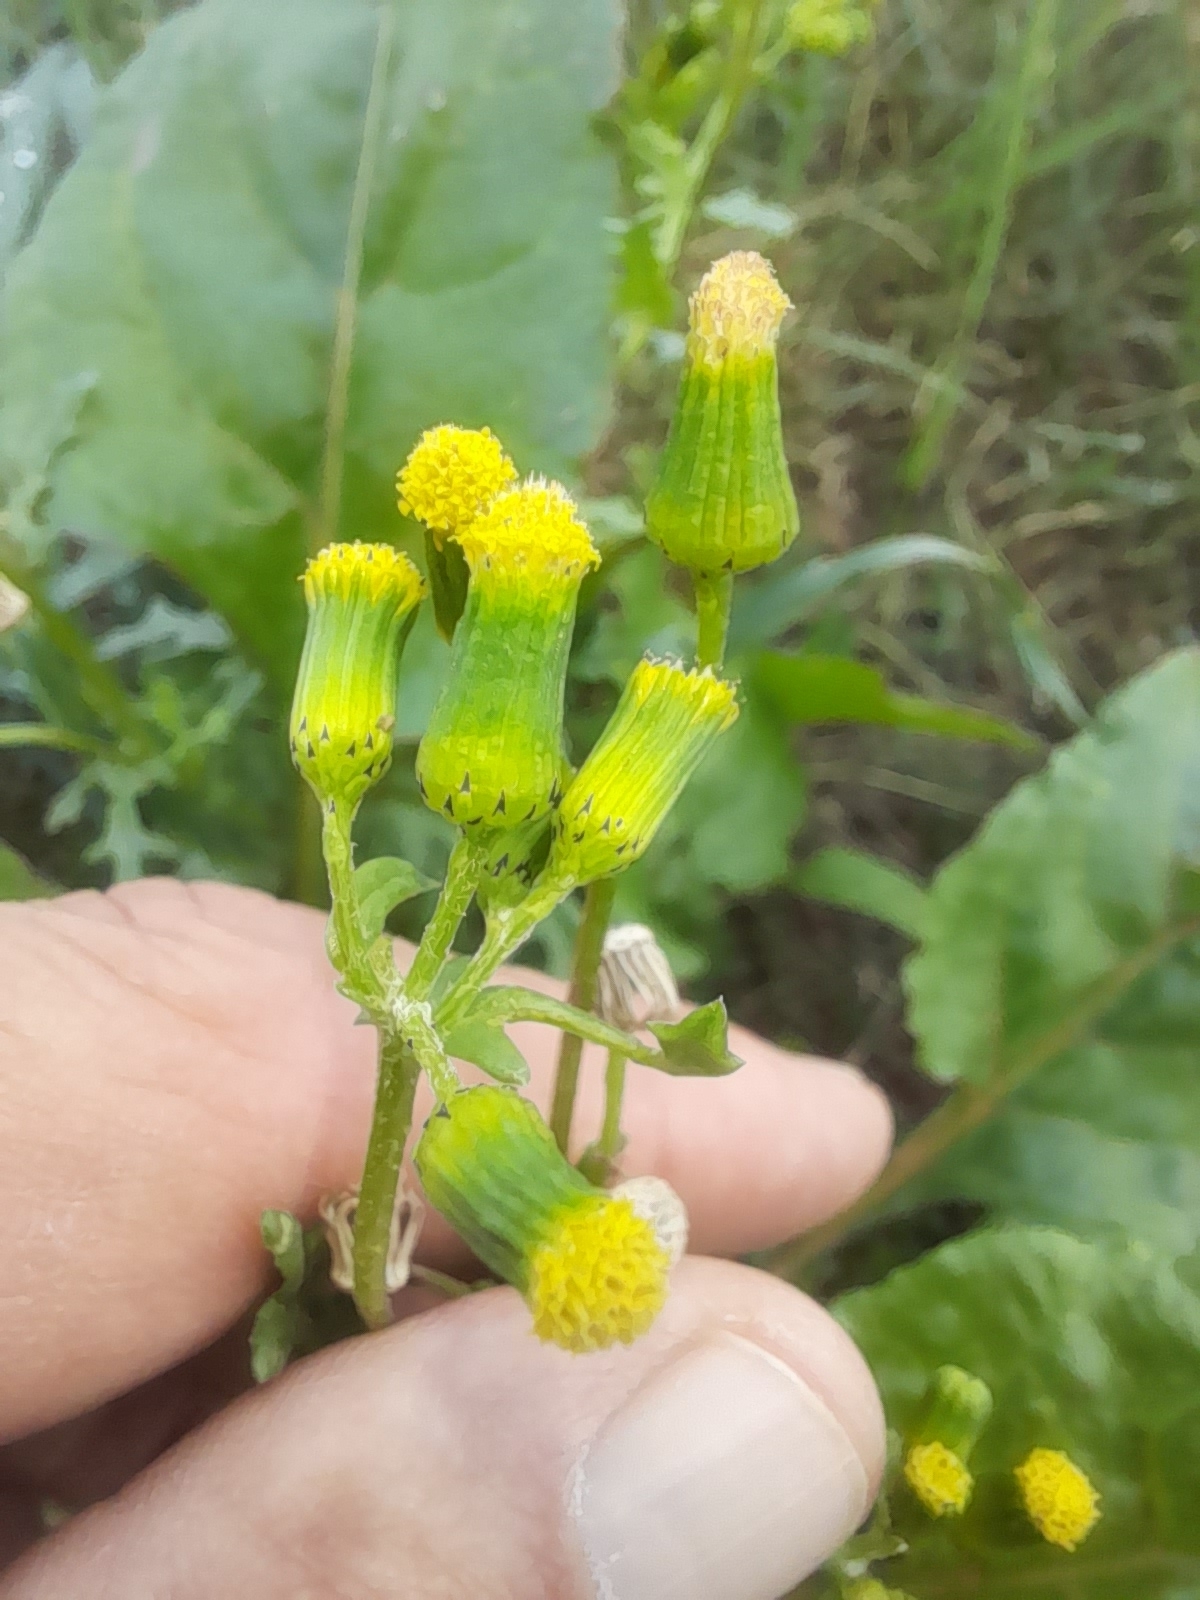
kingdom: Plantae
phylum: Tracheophyta
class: Magnoliopsida
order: Asterales
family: Asteraceae
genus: Senecio
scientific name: Senecio vulgaris
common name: Old-man-in-the-spring
